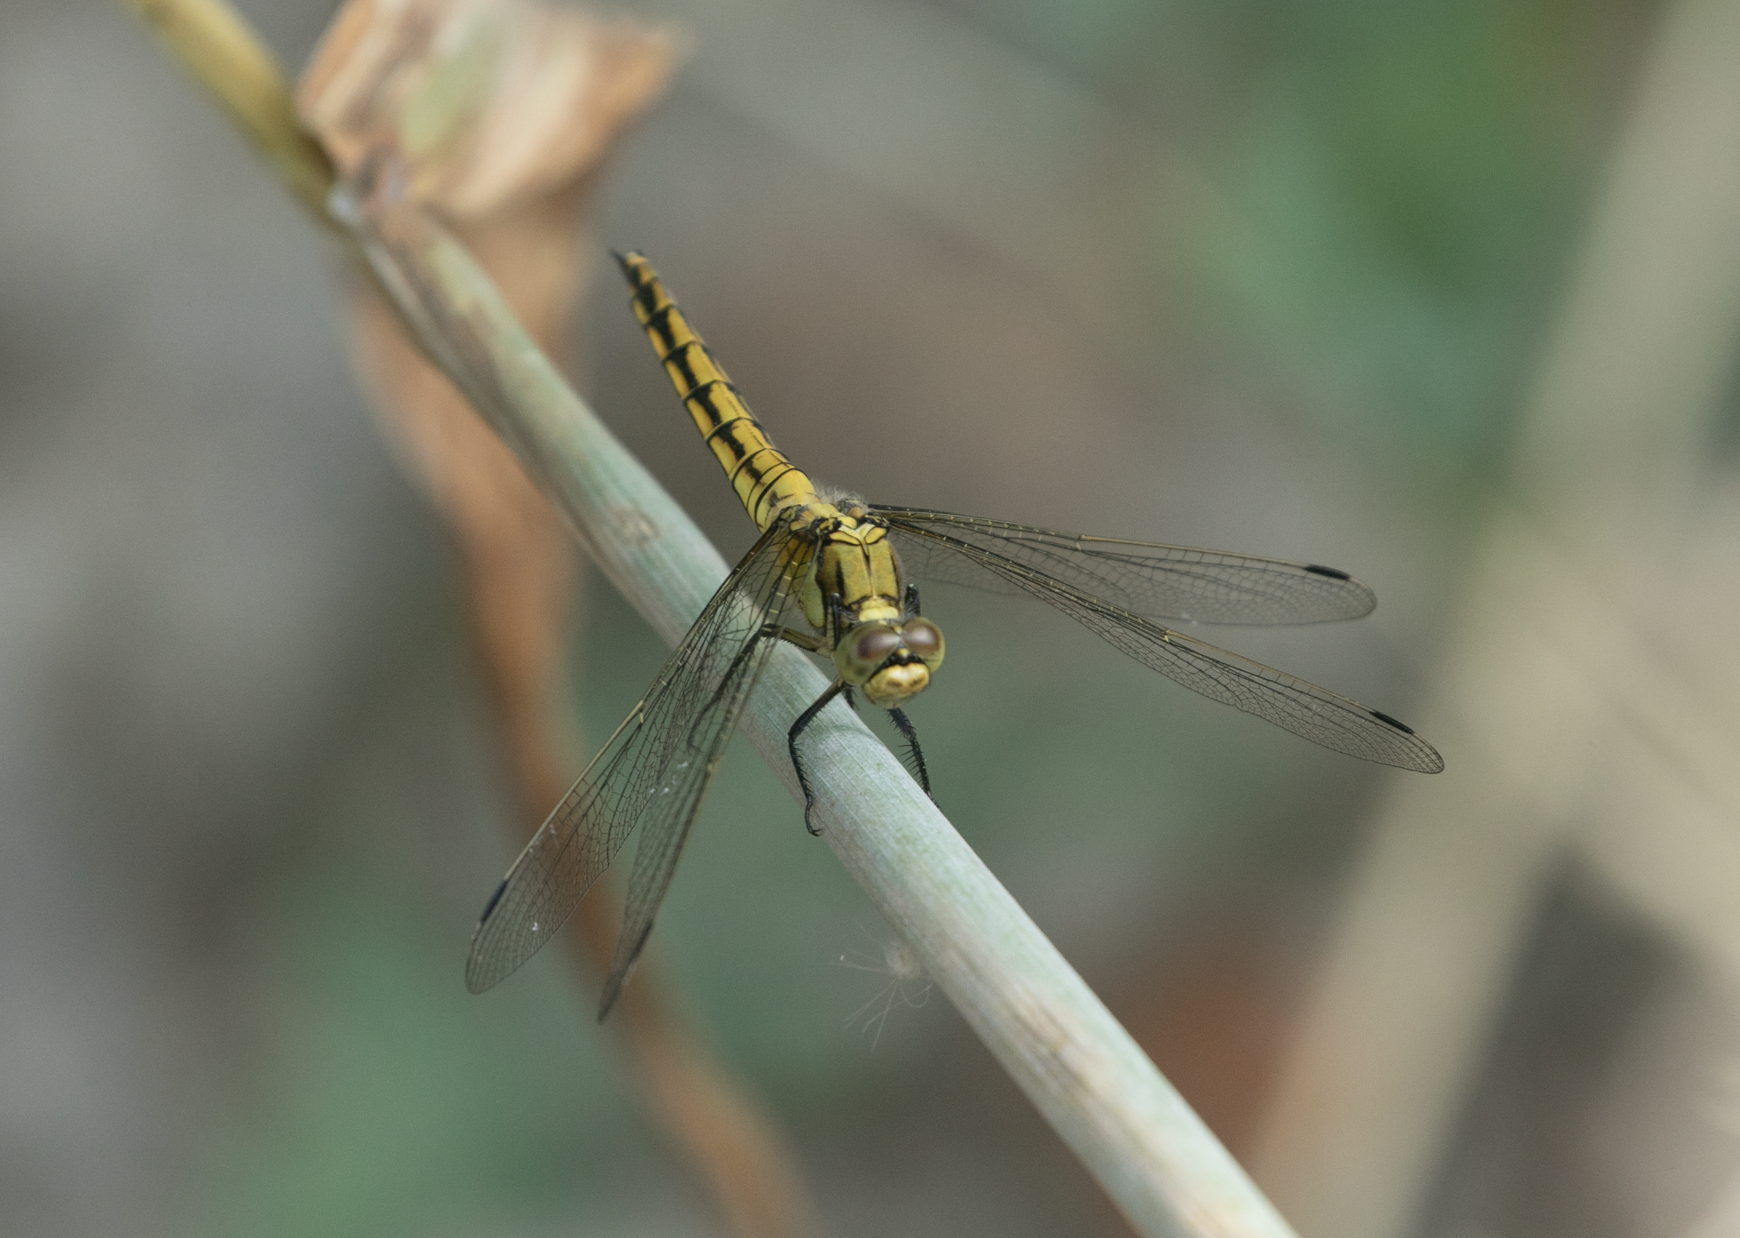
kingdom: Animalia
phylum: Arthropoda
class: Insecta
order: Odonata
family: Libellulidae
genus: Orthetrum
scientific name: Orthetrum cancellatum
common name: Black-tailed skimmer
